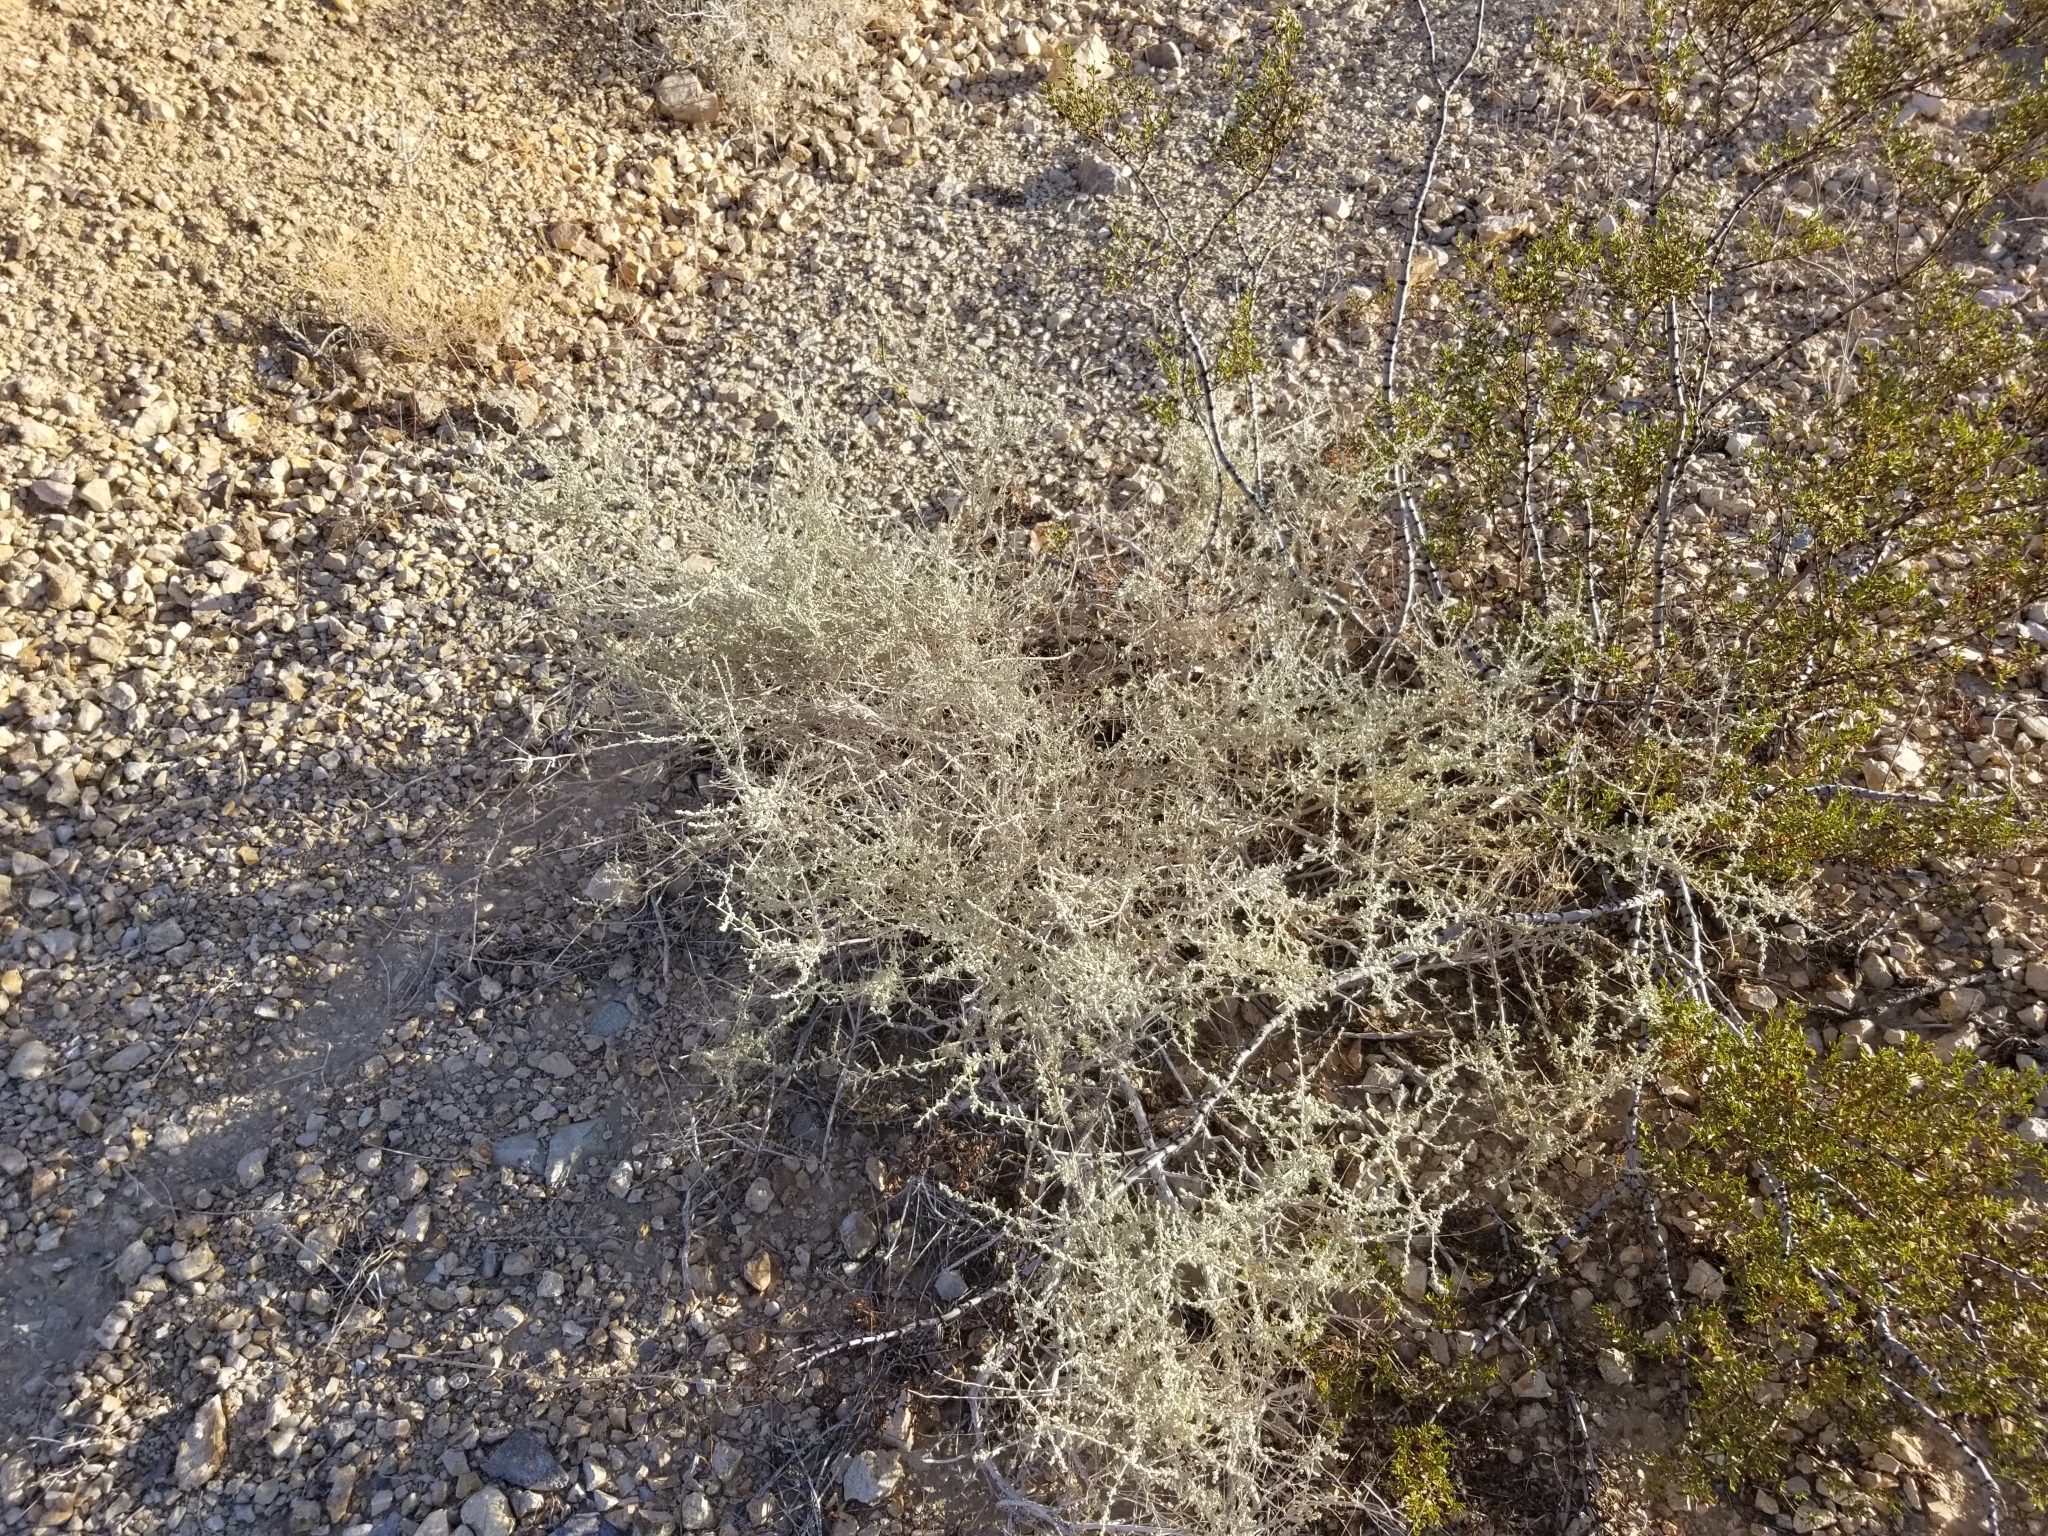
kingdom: Plantae
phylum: Tracheophyta
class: Magnoliopsida
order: Caryophyllales
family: Amaranthaceae
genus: Atriplex
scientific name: Atriplex polycarpa
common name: Desert saltbush
